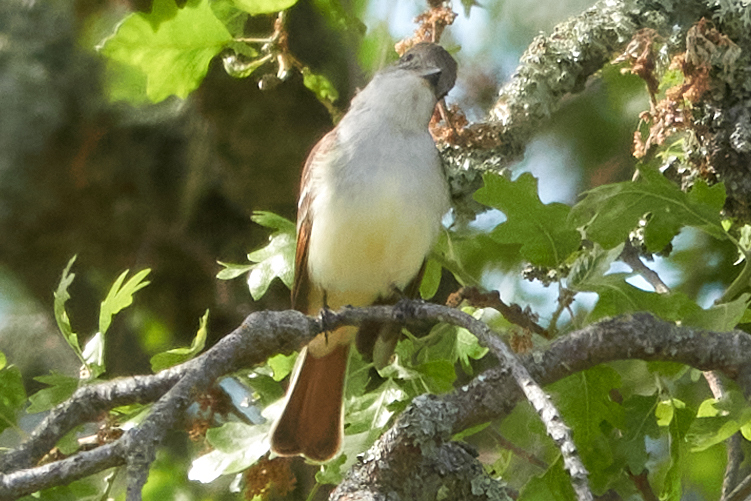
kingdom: Animalia
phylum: Chordata
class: Aves
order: Passeriformes
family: Tyrannidae
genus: Myiarchus
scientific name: Myiarchus cinerascens
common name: Ash-throated flycatcher
